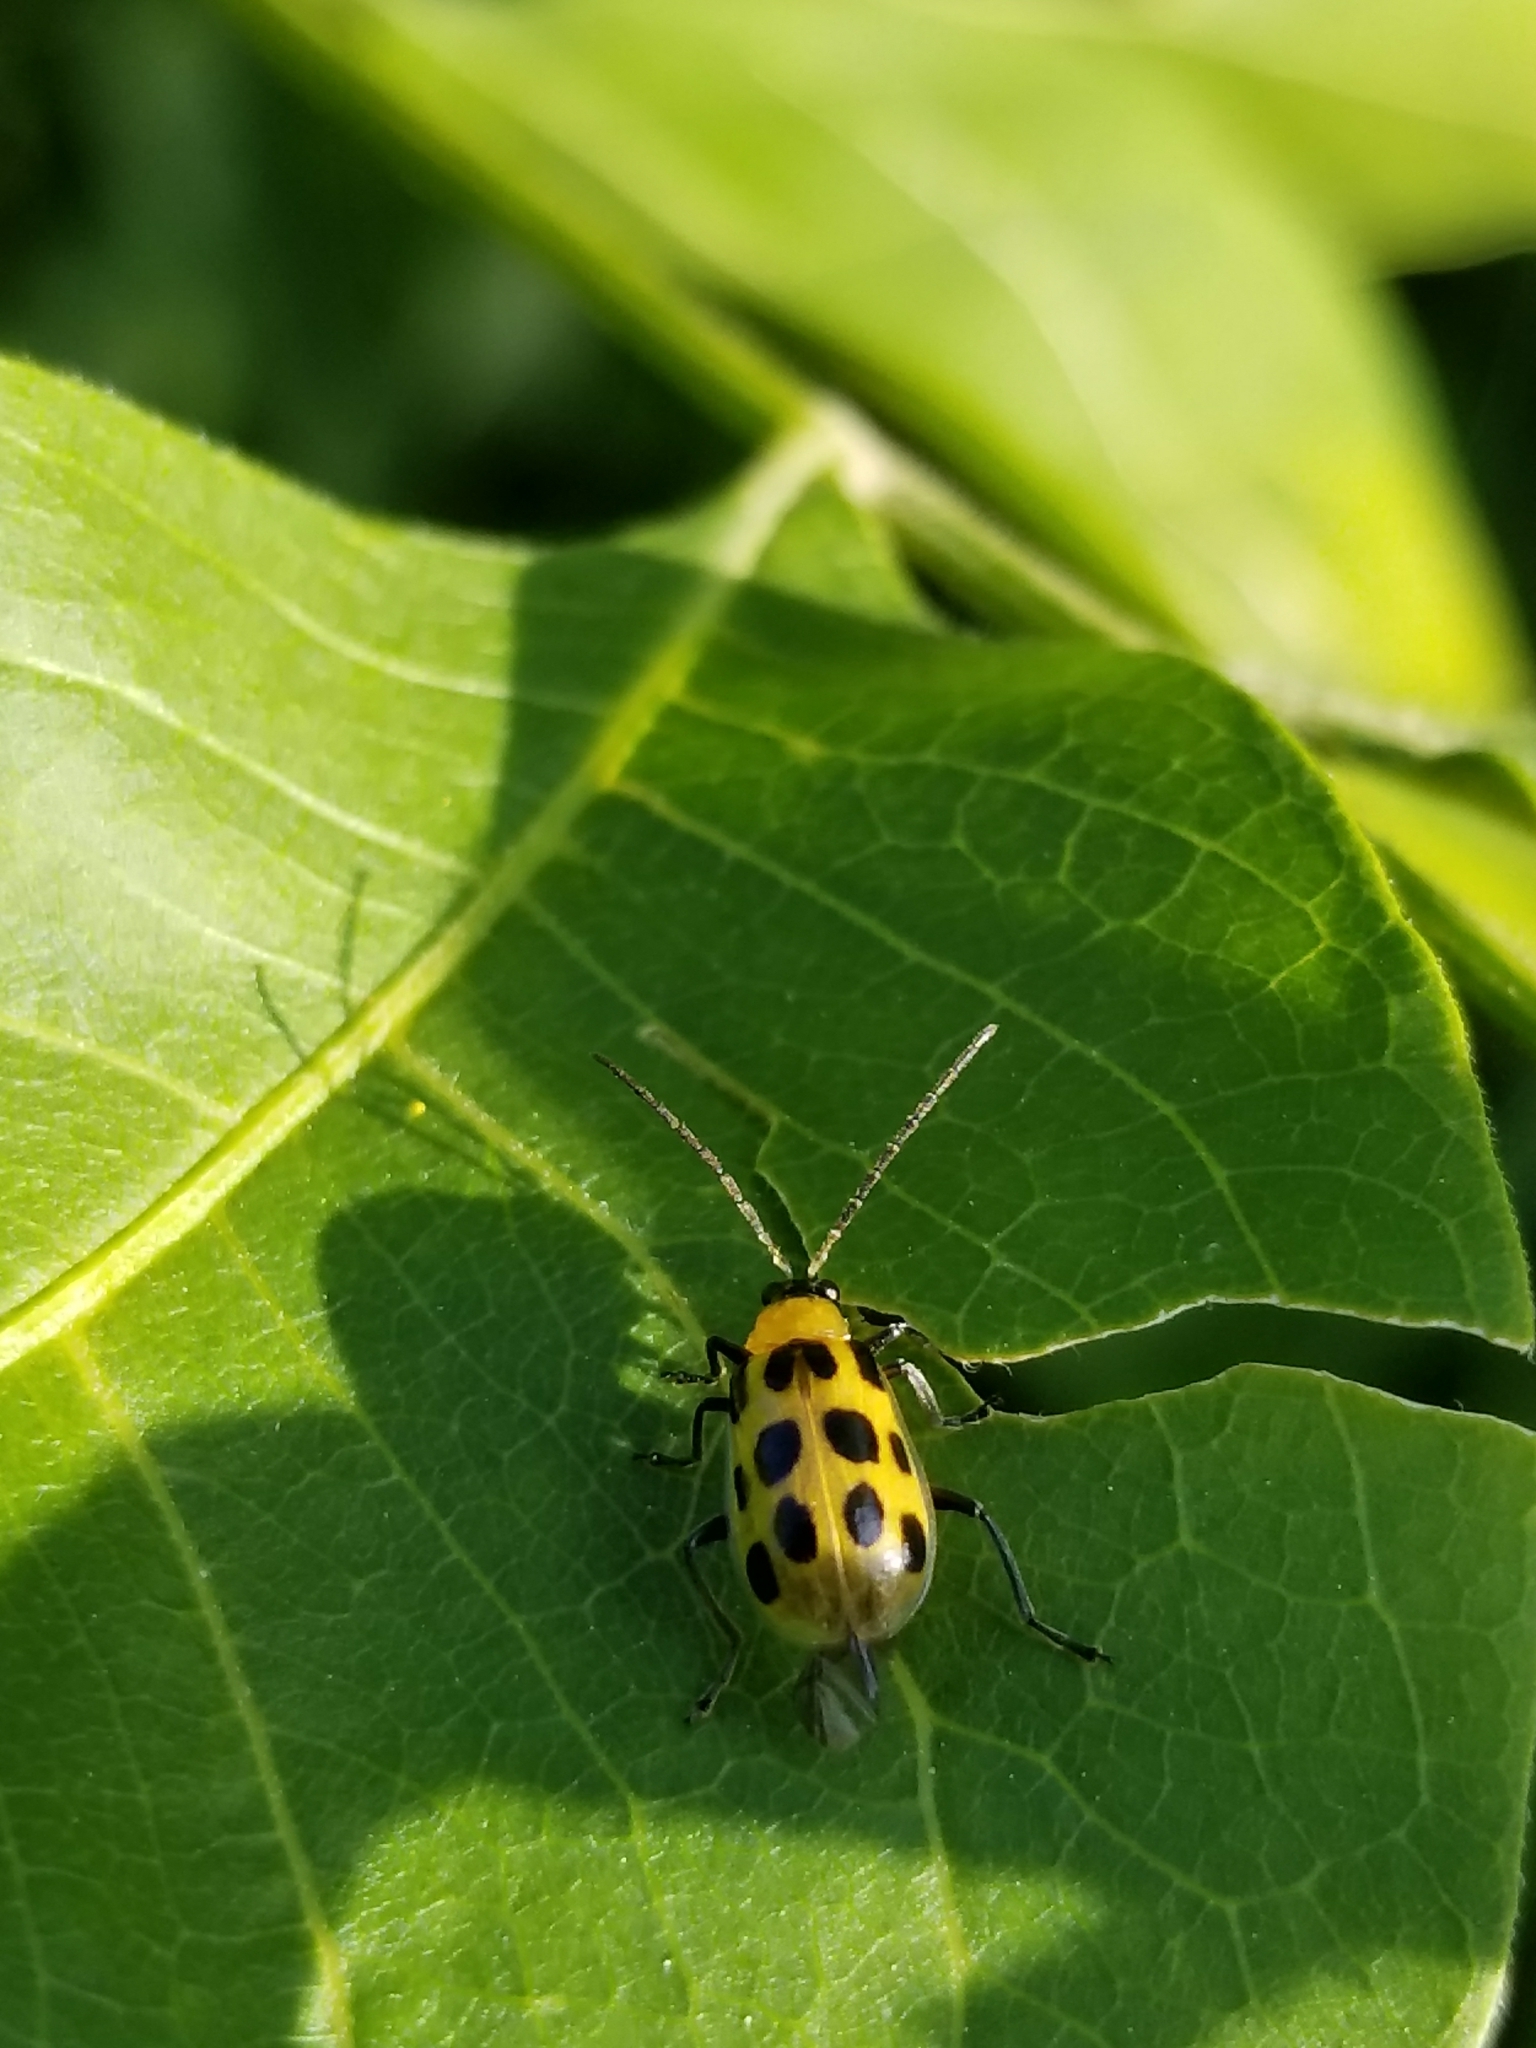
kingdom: Animalia
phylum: Arthropoda
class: Insecta
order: Coleoptera
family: Chrysomelidae
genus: Diabrotica
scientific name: Diabrotica undecimpunctata
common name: Spotted cucumber beetle
